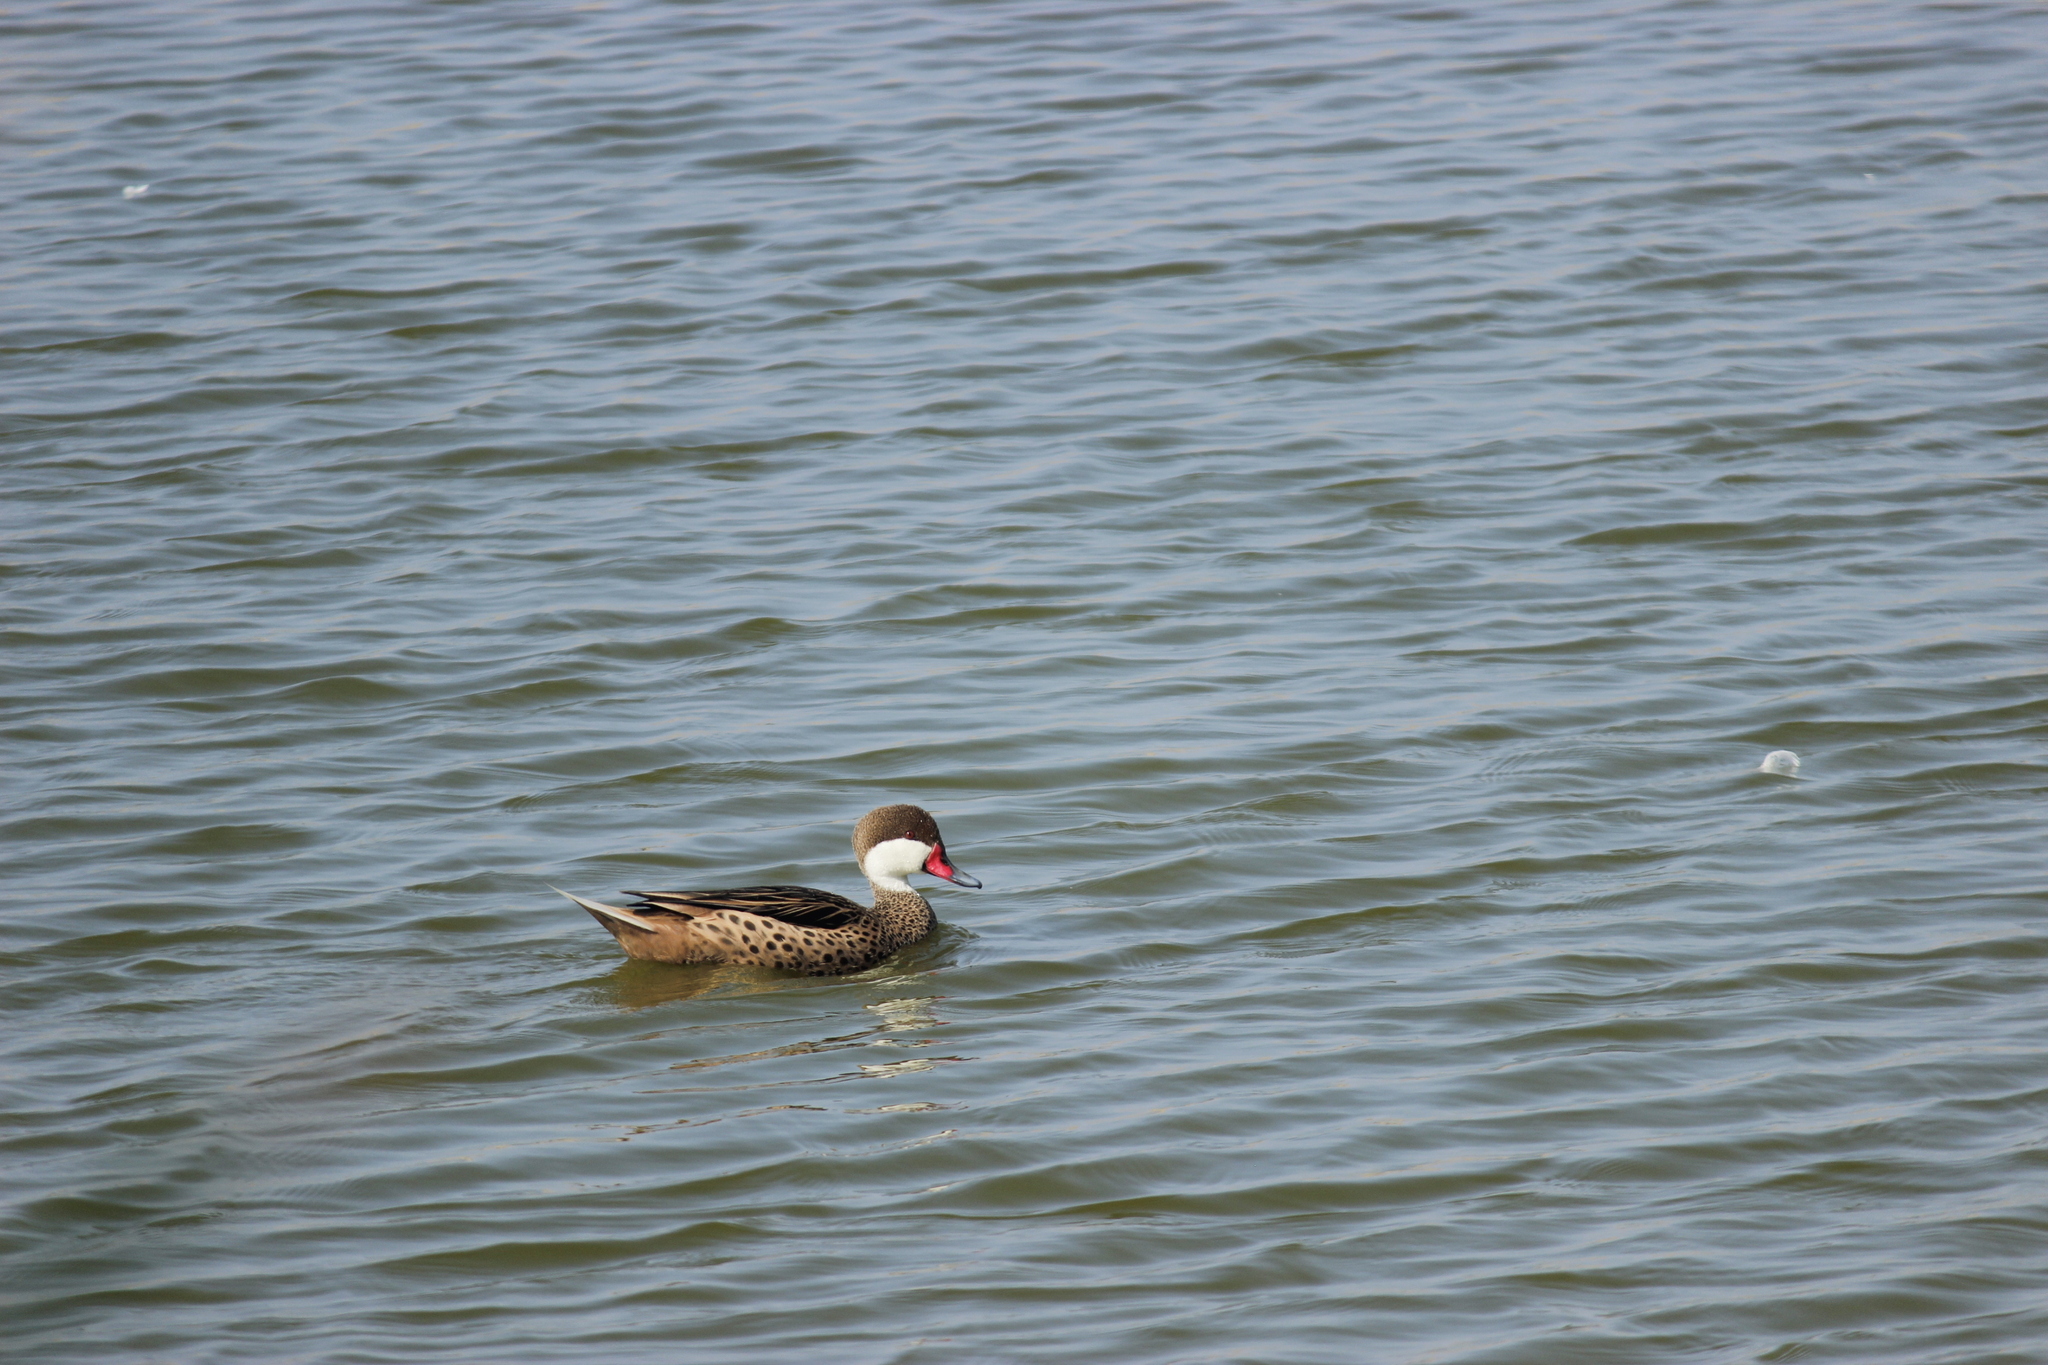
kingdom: Animalia
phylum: Chordata
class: Aves
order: Anseriformes
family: Anatidae
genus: Anas
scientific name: Anas bahamensis
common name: White-cheeked pintail
